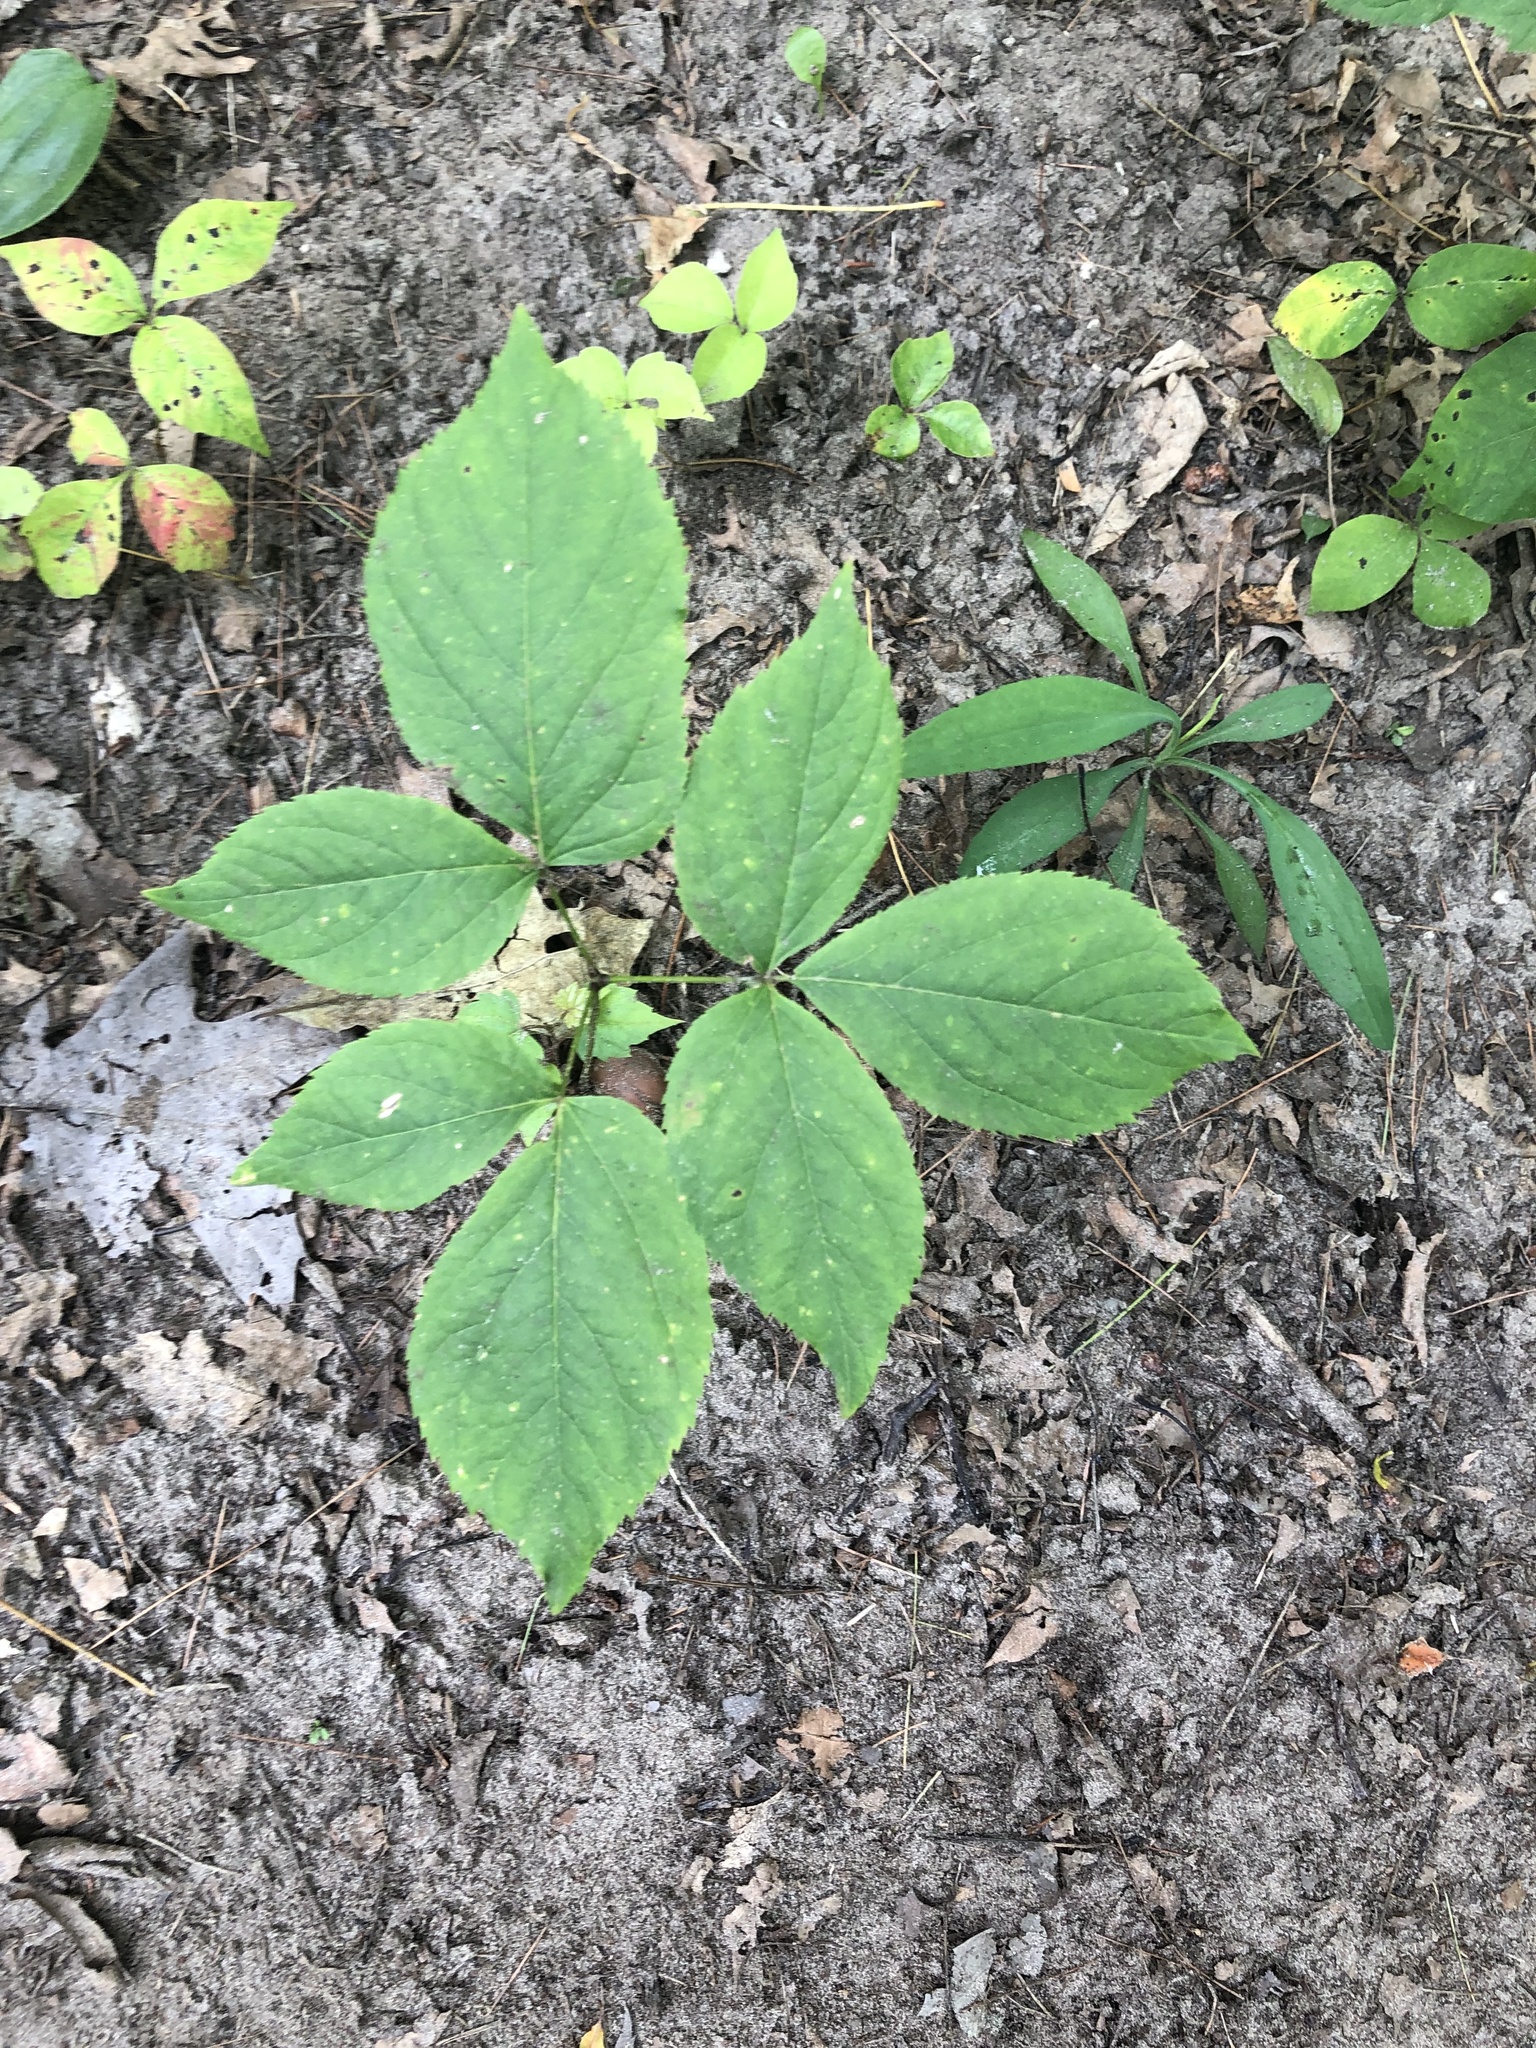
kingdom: Plantae
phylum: Tracheophyta
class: Magnoliopsida
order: Apiales
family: Araliaceae
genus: Aralia
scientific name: Aralia nudicaulis
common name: Wild sarsaparilla
